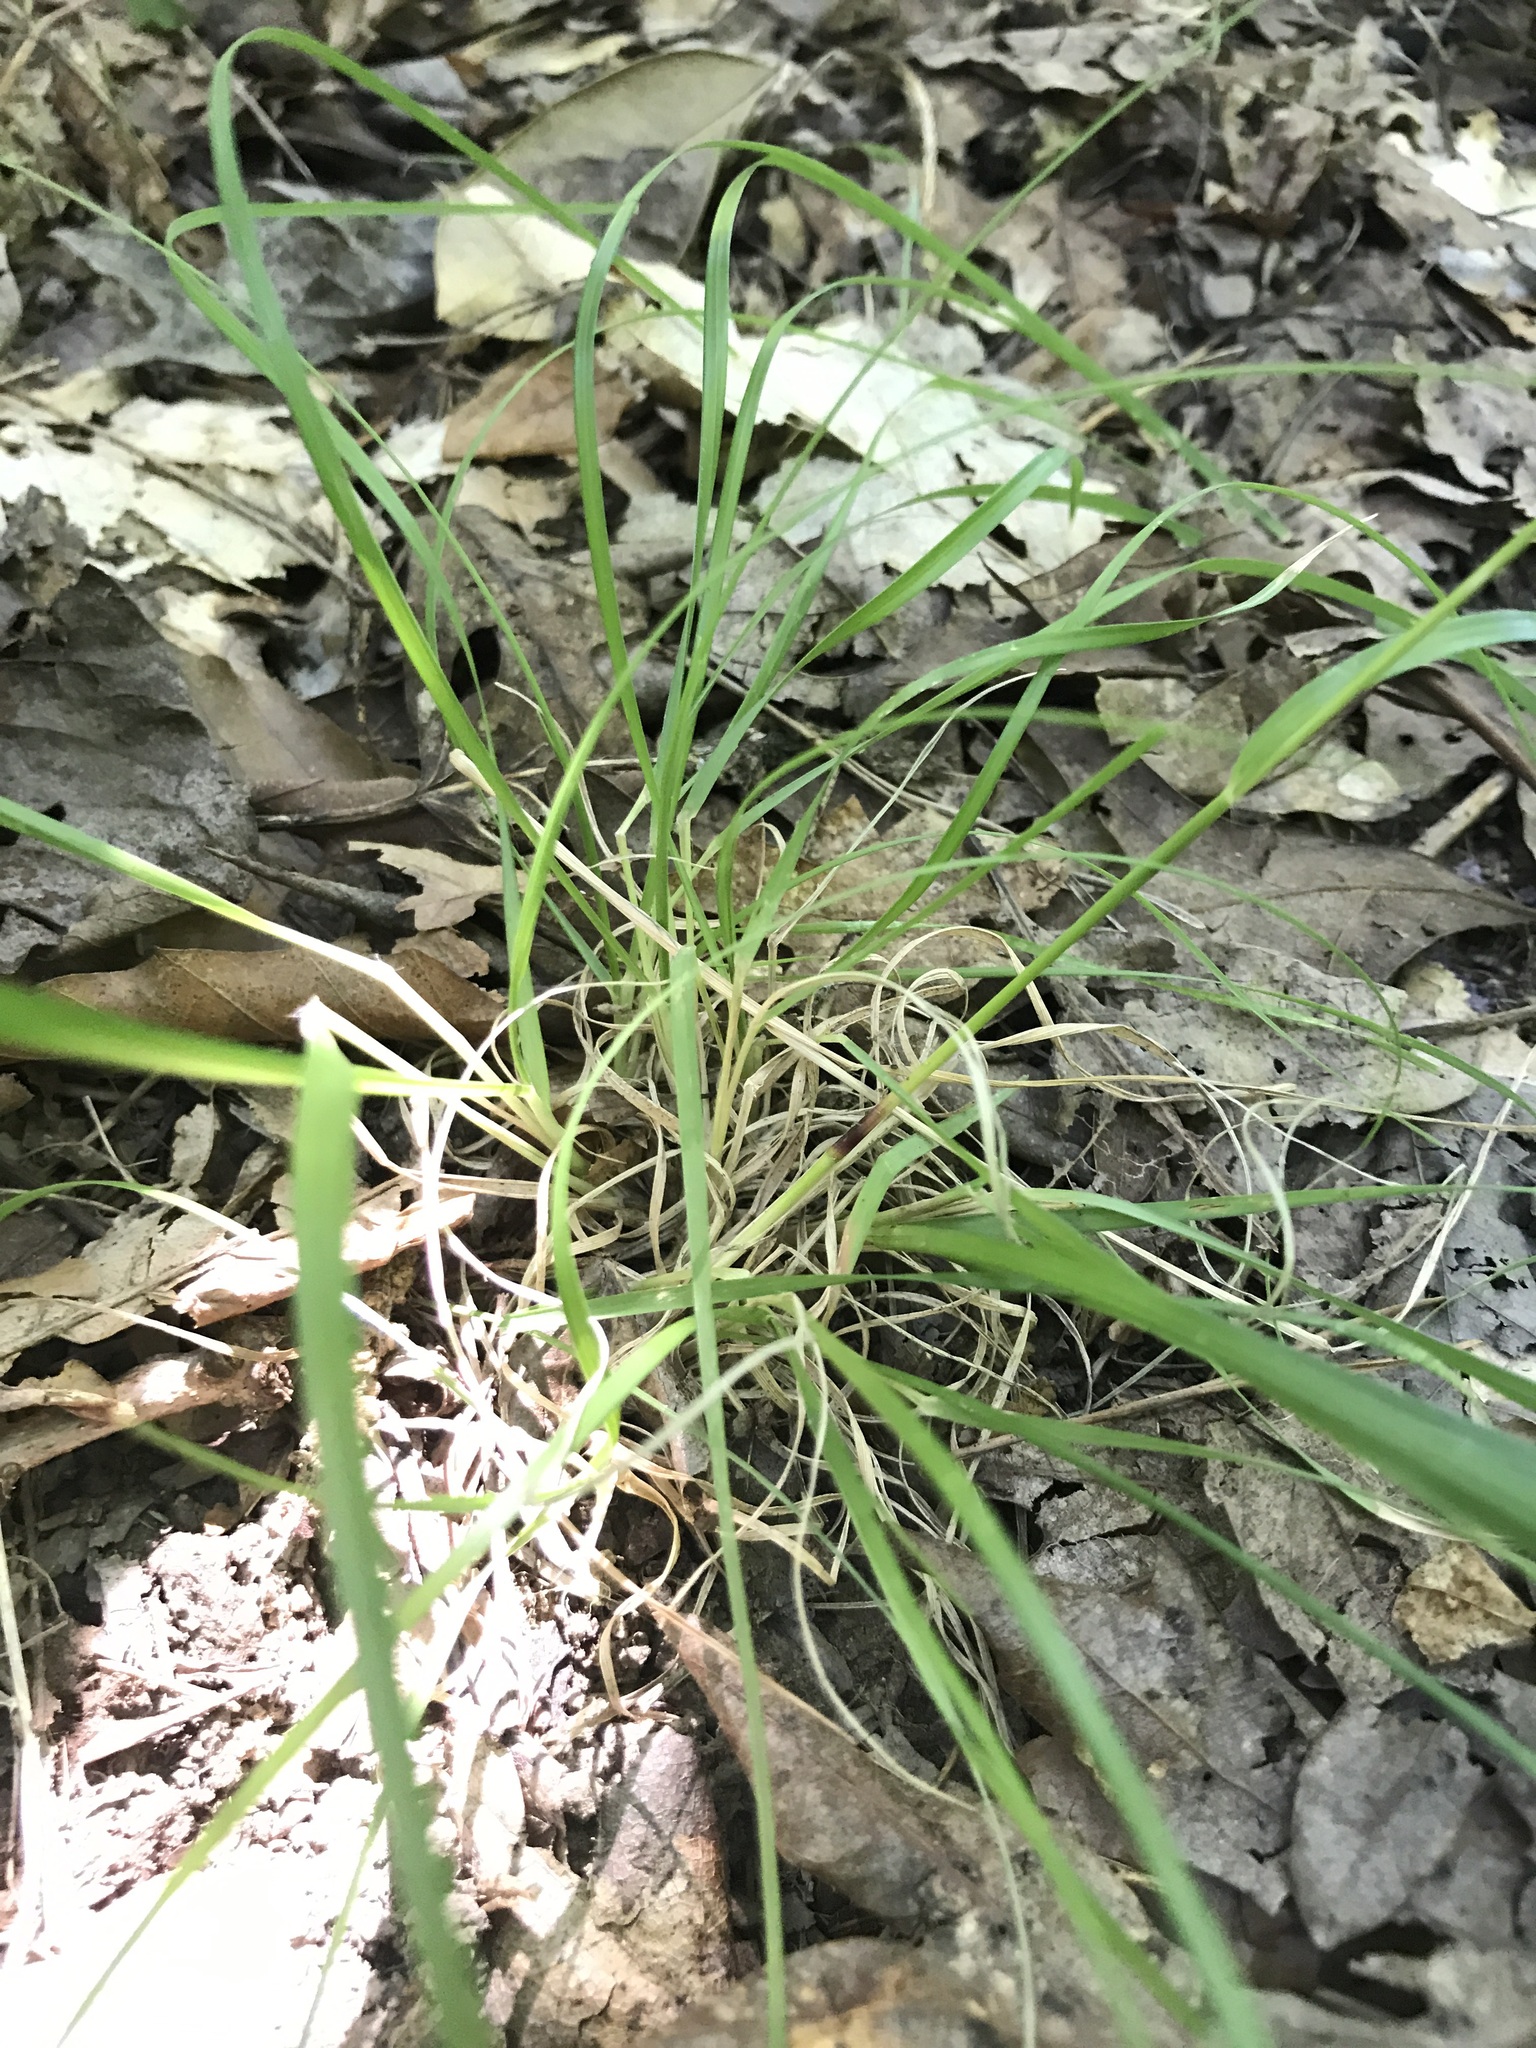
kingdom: Plantae
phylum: Tracheophyta
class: Liliopsida
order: Poales
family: Poaceae
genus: Danthonia
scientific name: Danthonia spicata
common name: Common wild oatgrass
